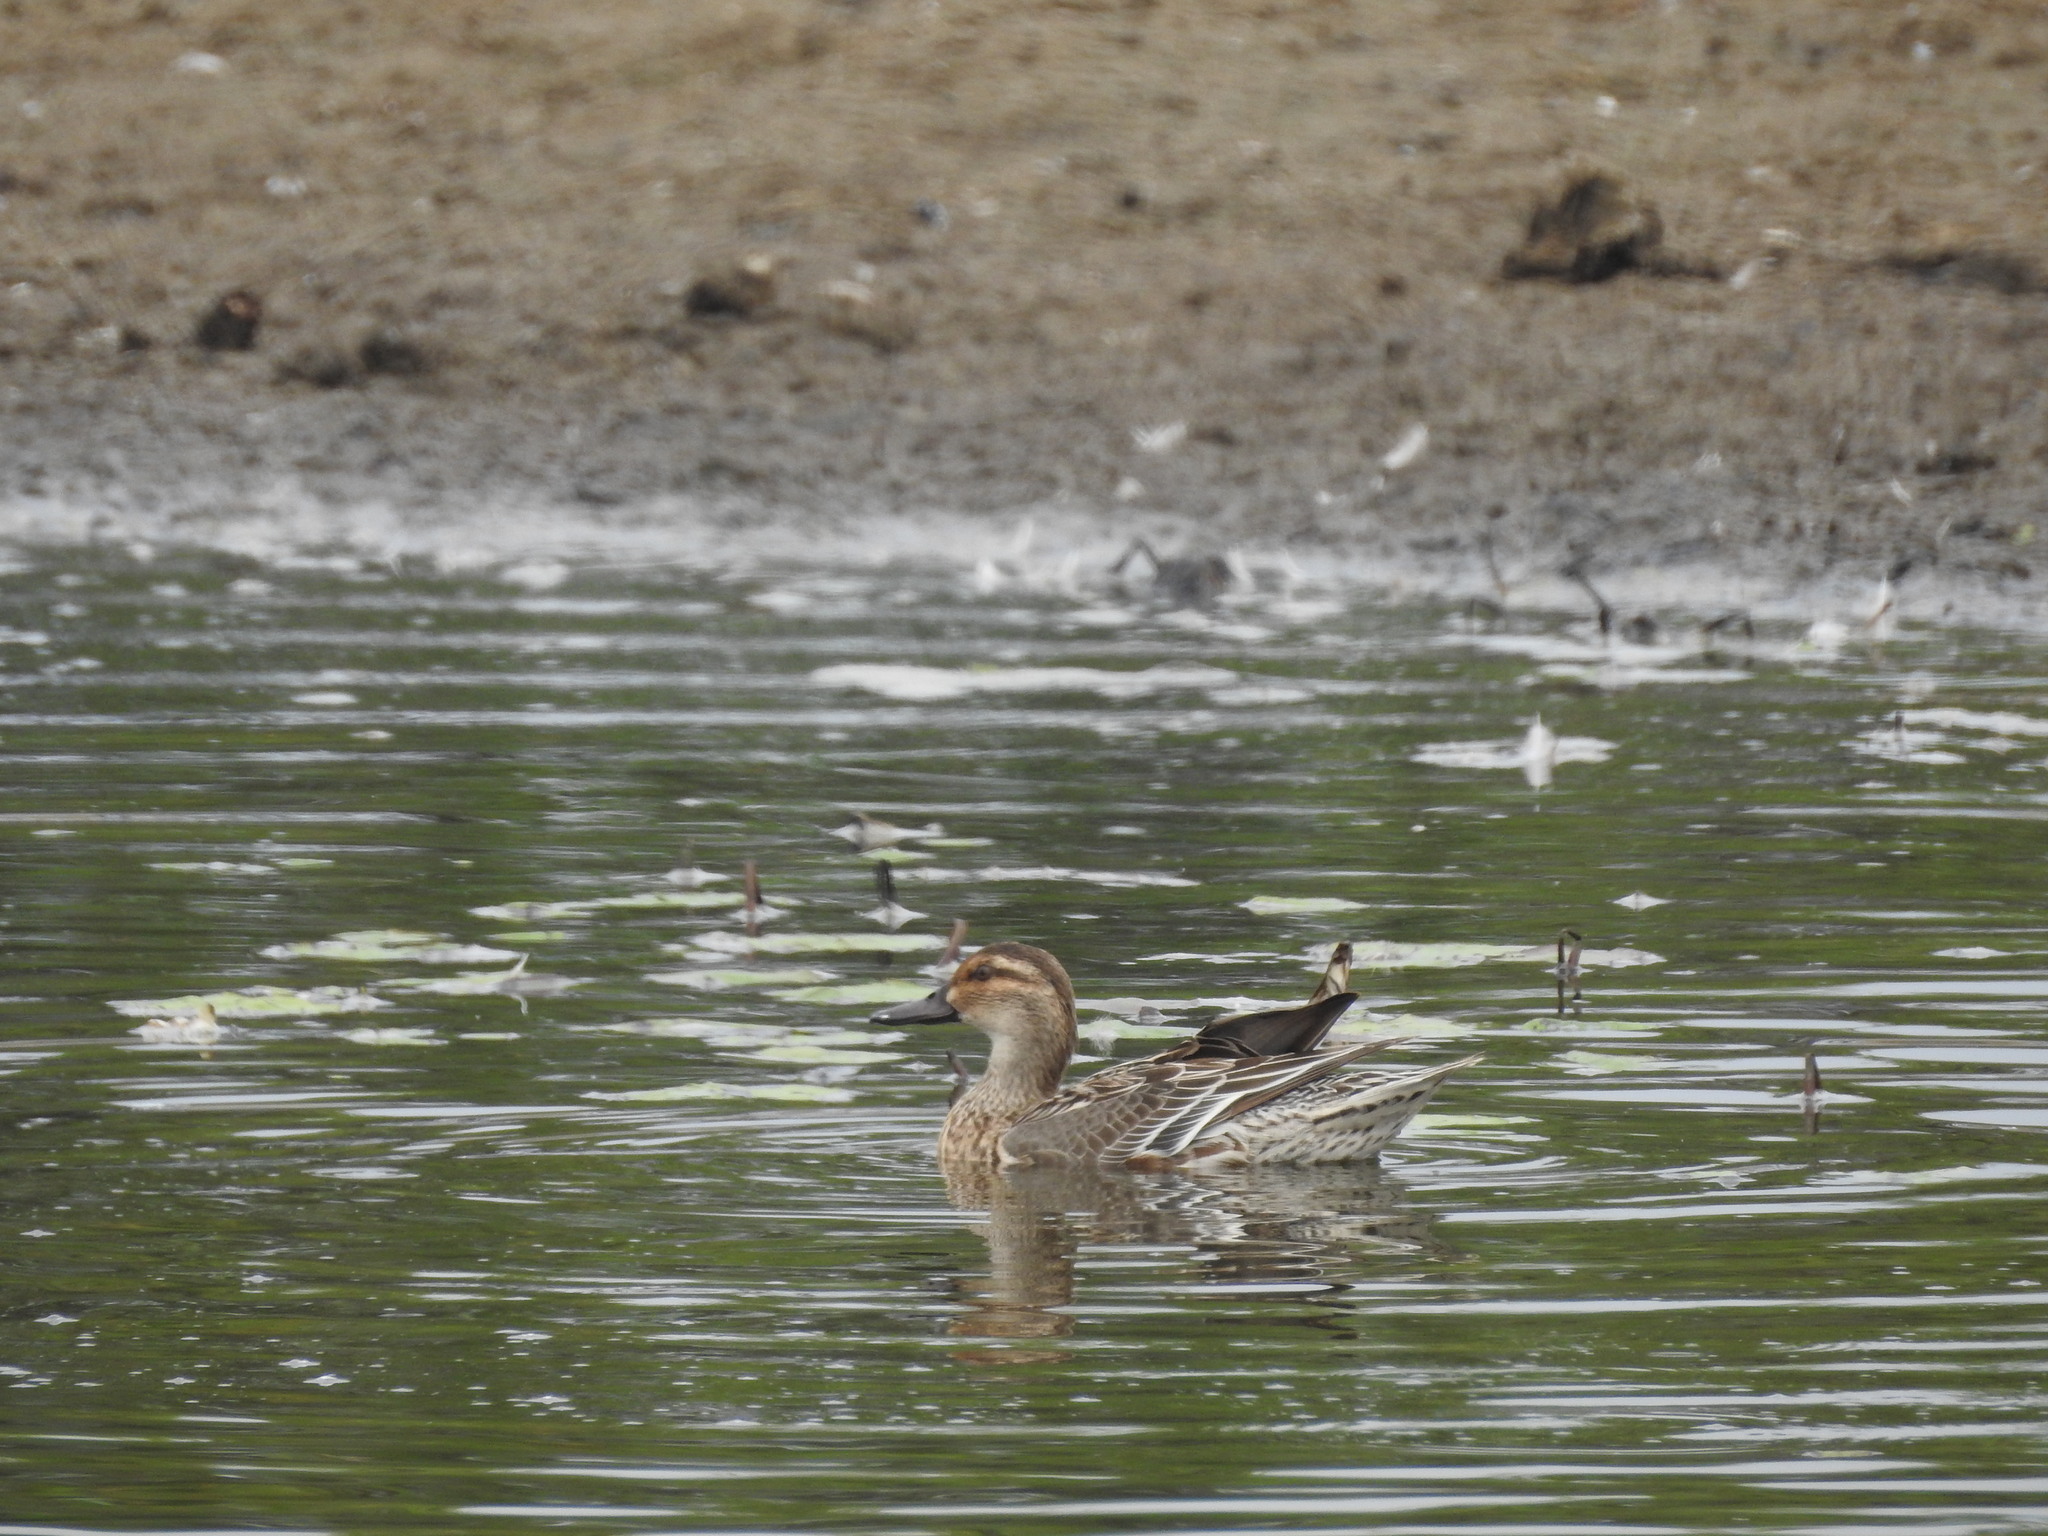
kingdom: Animalia
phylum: Chordata
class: Aves
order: Anseriformes
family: Anatidae
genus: Spatula
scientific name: Spatula querquedula
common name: Garganey
